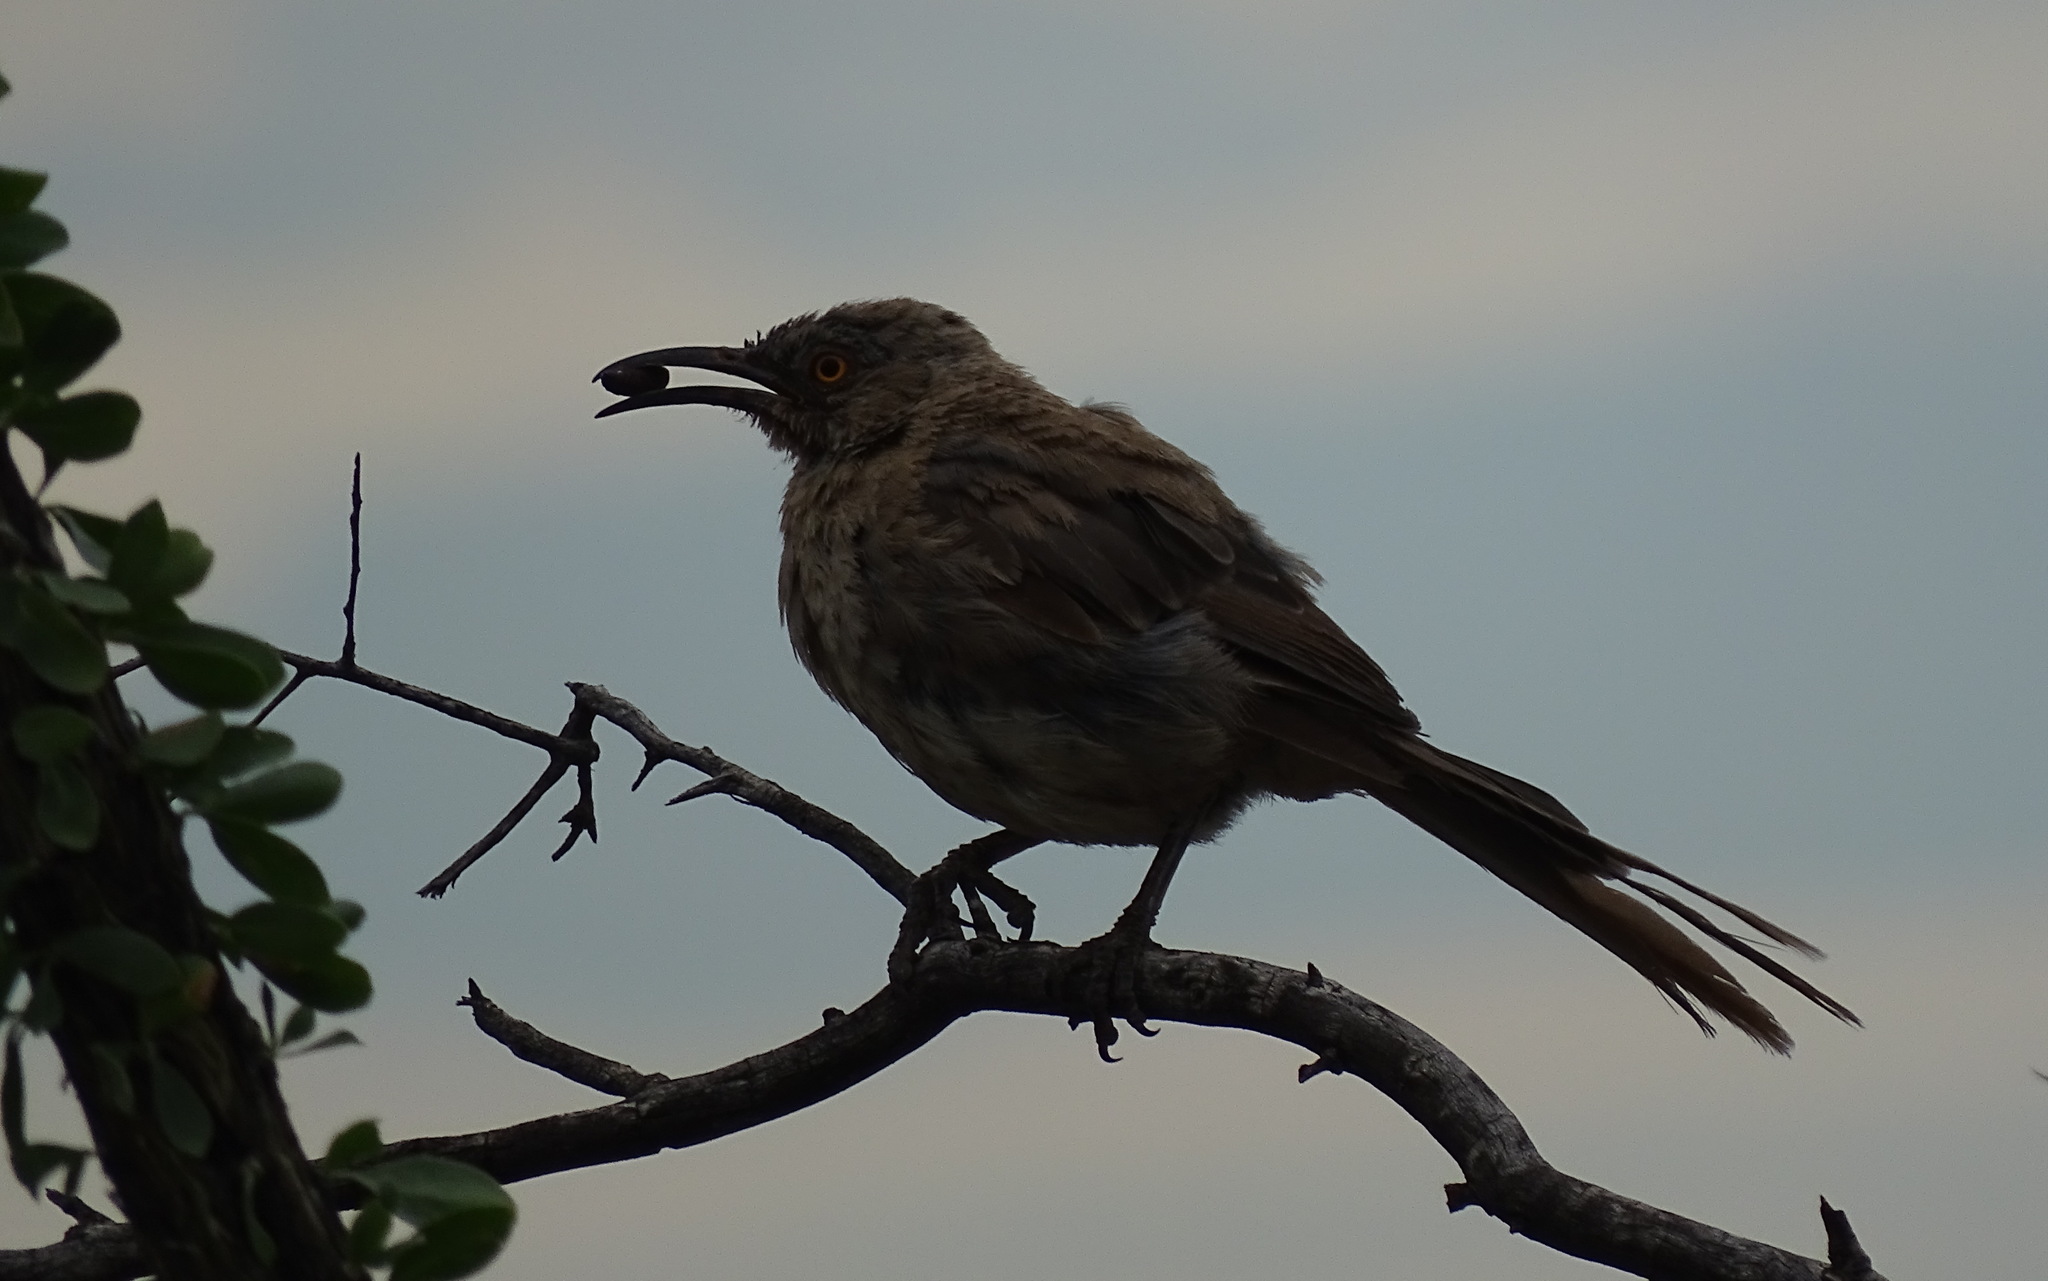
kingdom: Animalia
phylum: Chordata
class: Aves
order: Passeriformes
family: Mimidae
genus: Toxostoma
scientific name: Toxostoma curvirostre
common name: Curve-billed thrasher
